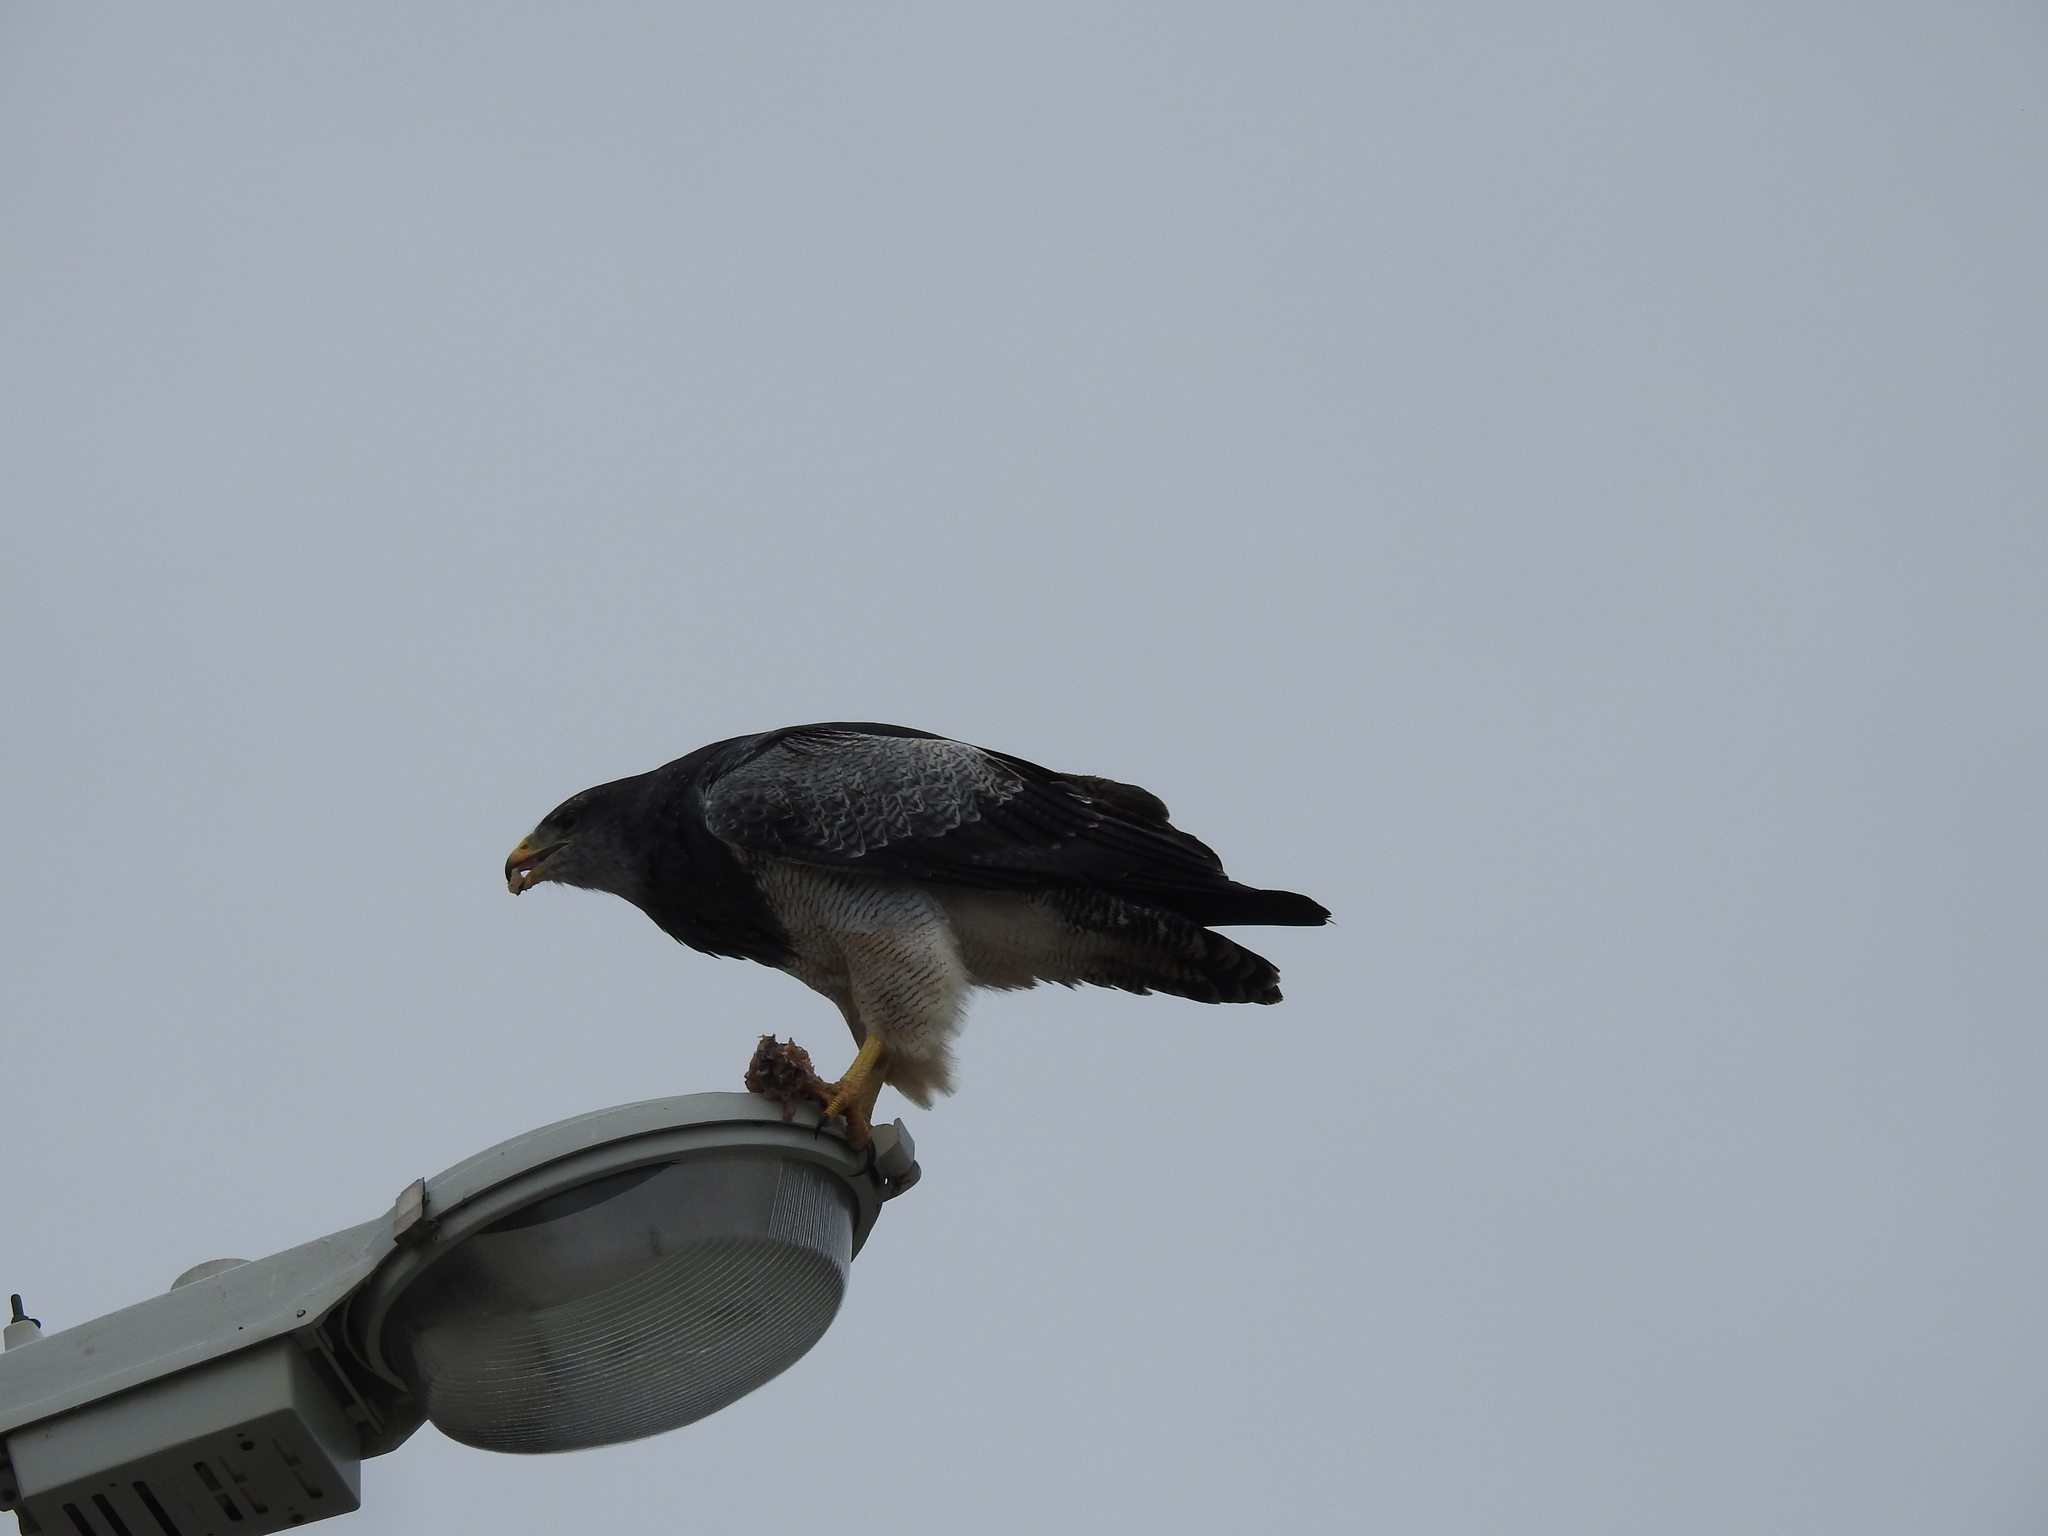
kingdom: Animalia
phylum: Chordata
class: Aves
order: Accipitriformes
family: Accipitridae
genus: Geranoaetus
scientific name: Geranoaetus melanoleucus
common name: Black-chested buzzard-eagle
